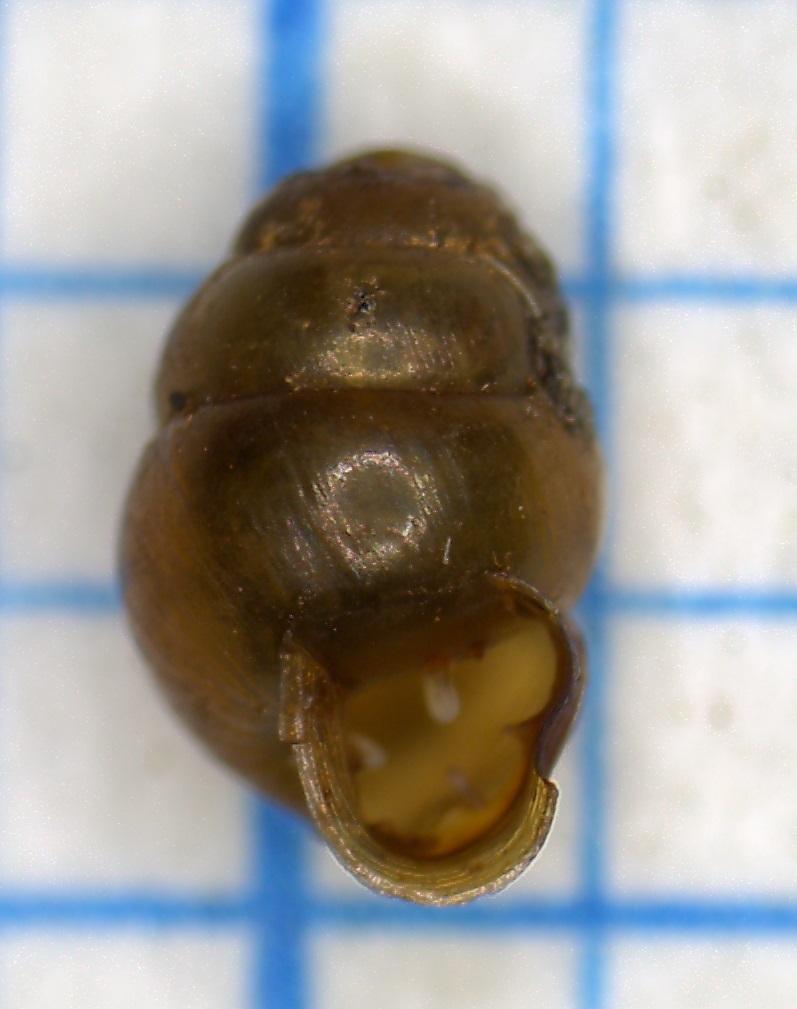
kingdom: Animalia
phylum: Mollusca
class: Gastropoda
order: Stylommatophora
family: Vertiginidae
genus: Vertigo
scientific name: Vertigo moulinsiana
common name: Desmoulin's whorl snail
